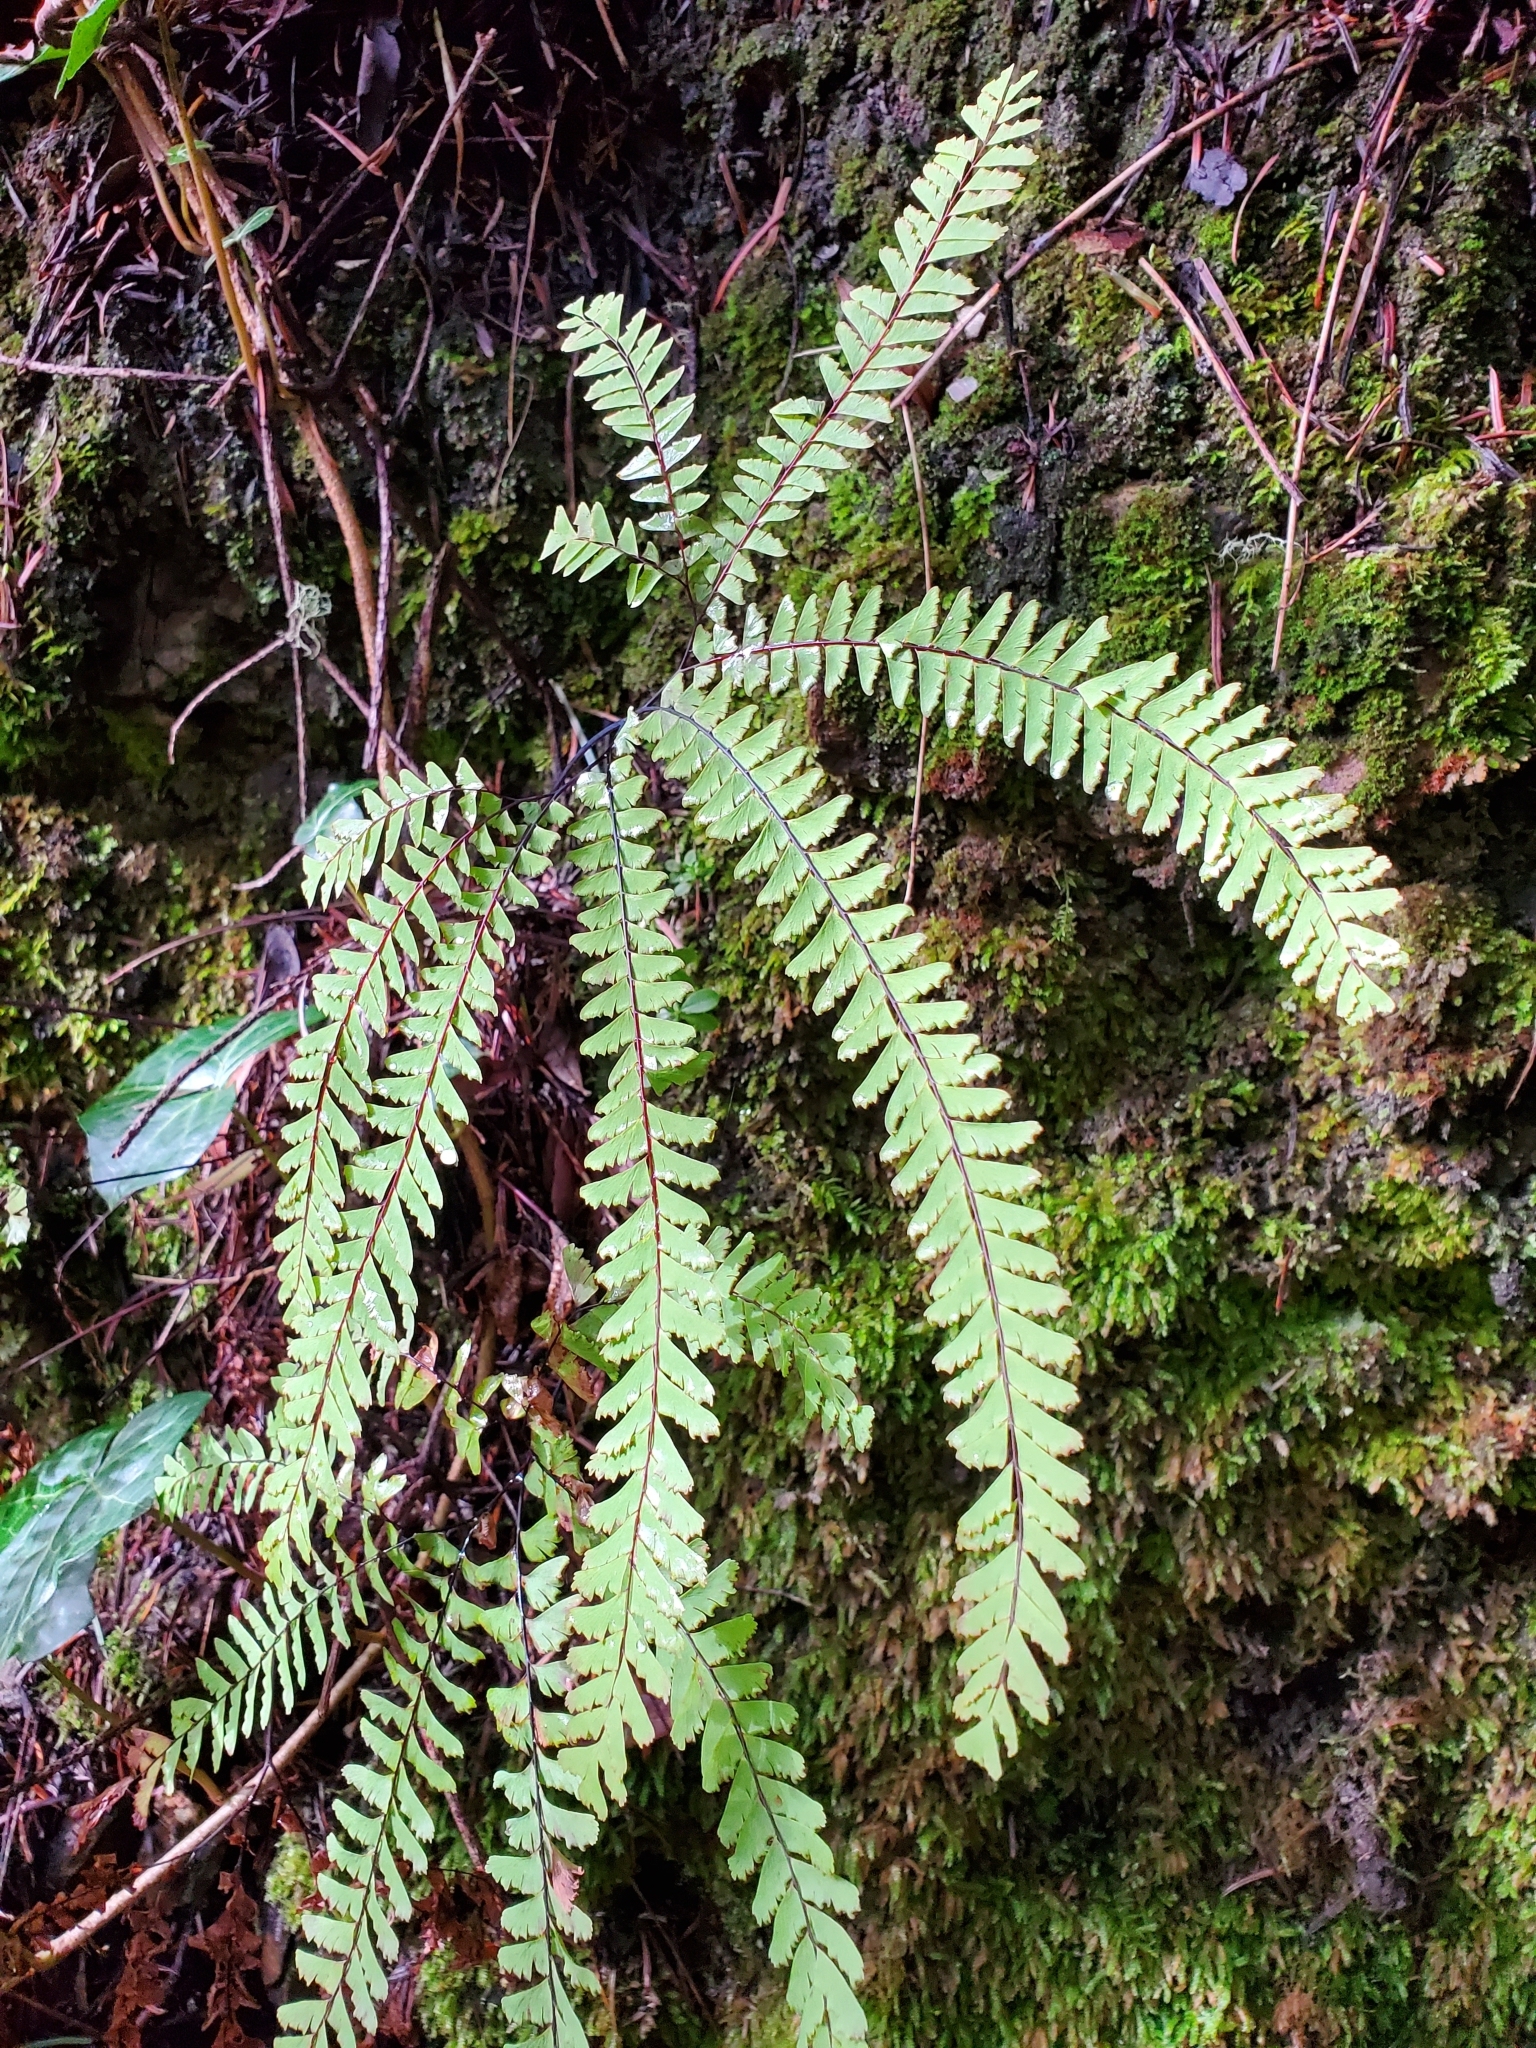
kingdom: Plantae
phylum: Tracheophyta
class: Polypodiopsida
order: Polypodiales
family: Pteridaceae
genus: Adiantum
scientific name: Adiantum aleuticum
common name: Aleutian maidenhair fern
